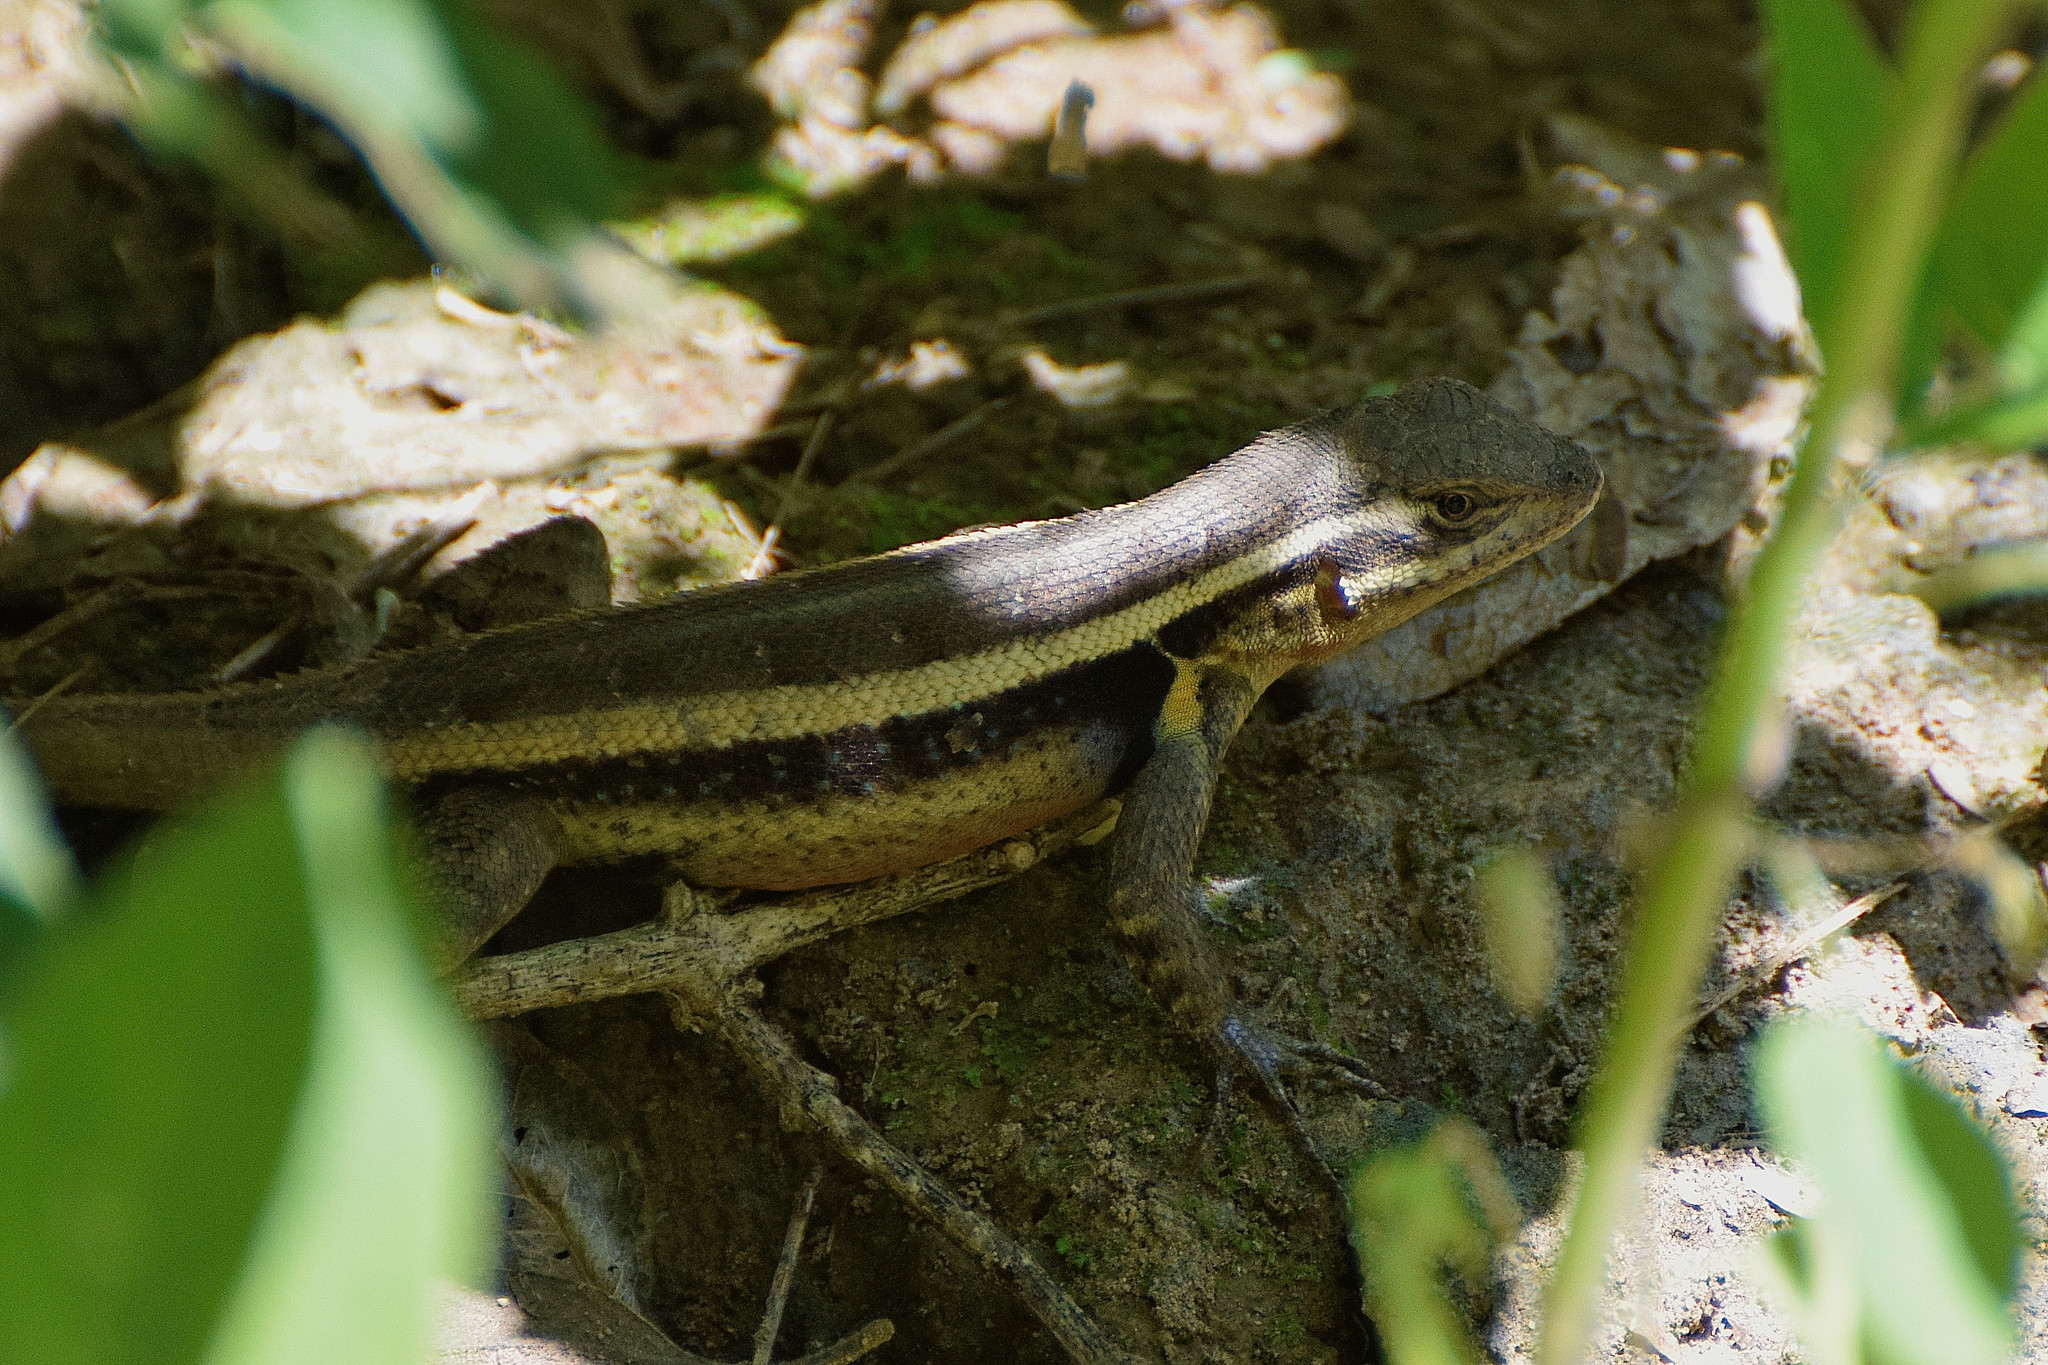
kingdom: Animalia
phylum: Chordata
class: Squamata
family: Phrynosomatidae
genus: Sceloporus
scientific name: Sceloporus variabilis
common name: Rosebelly lizard
